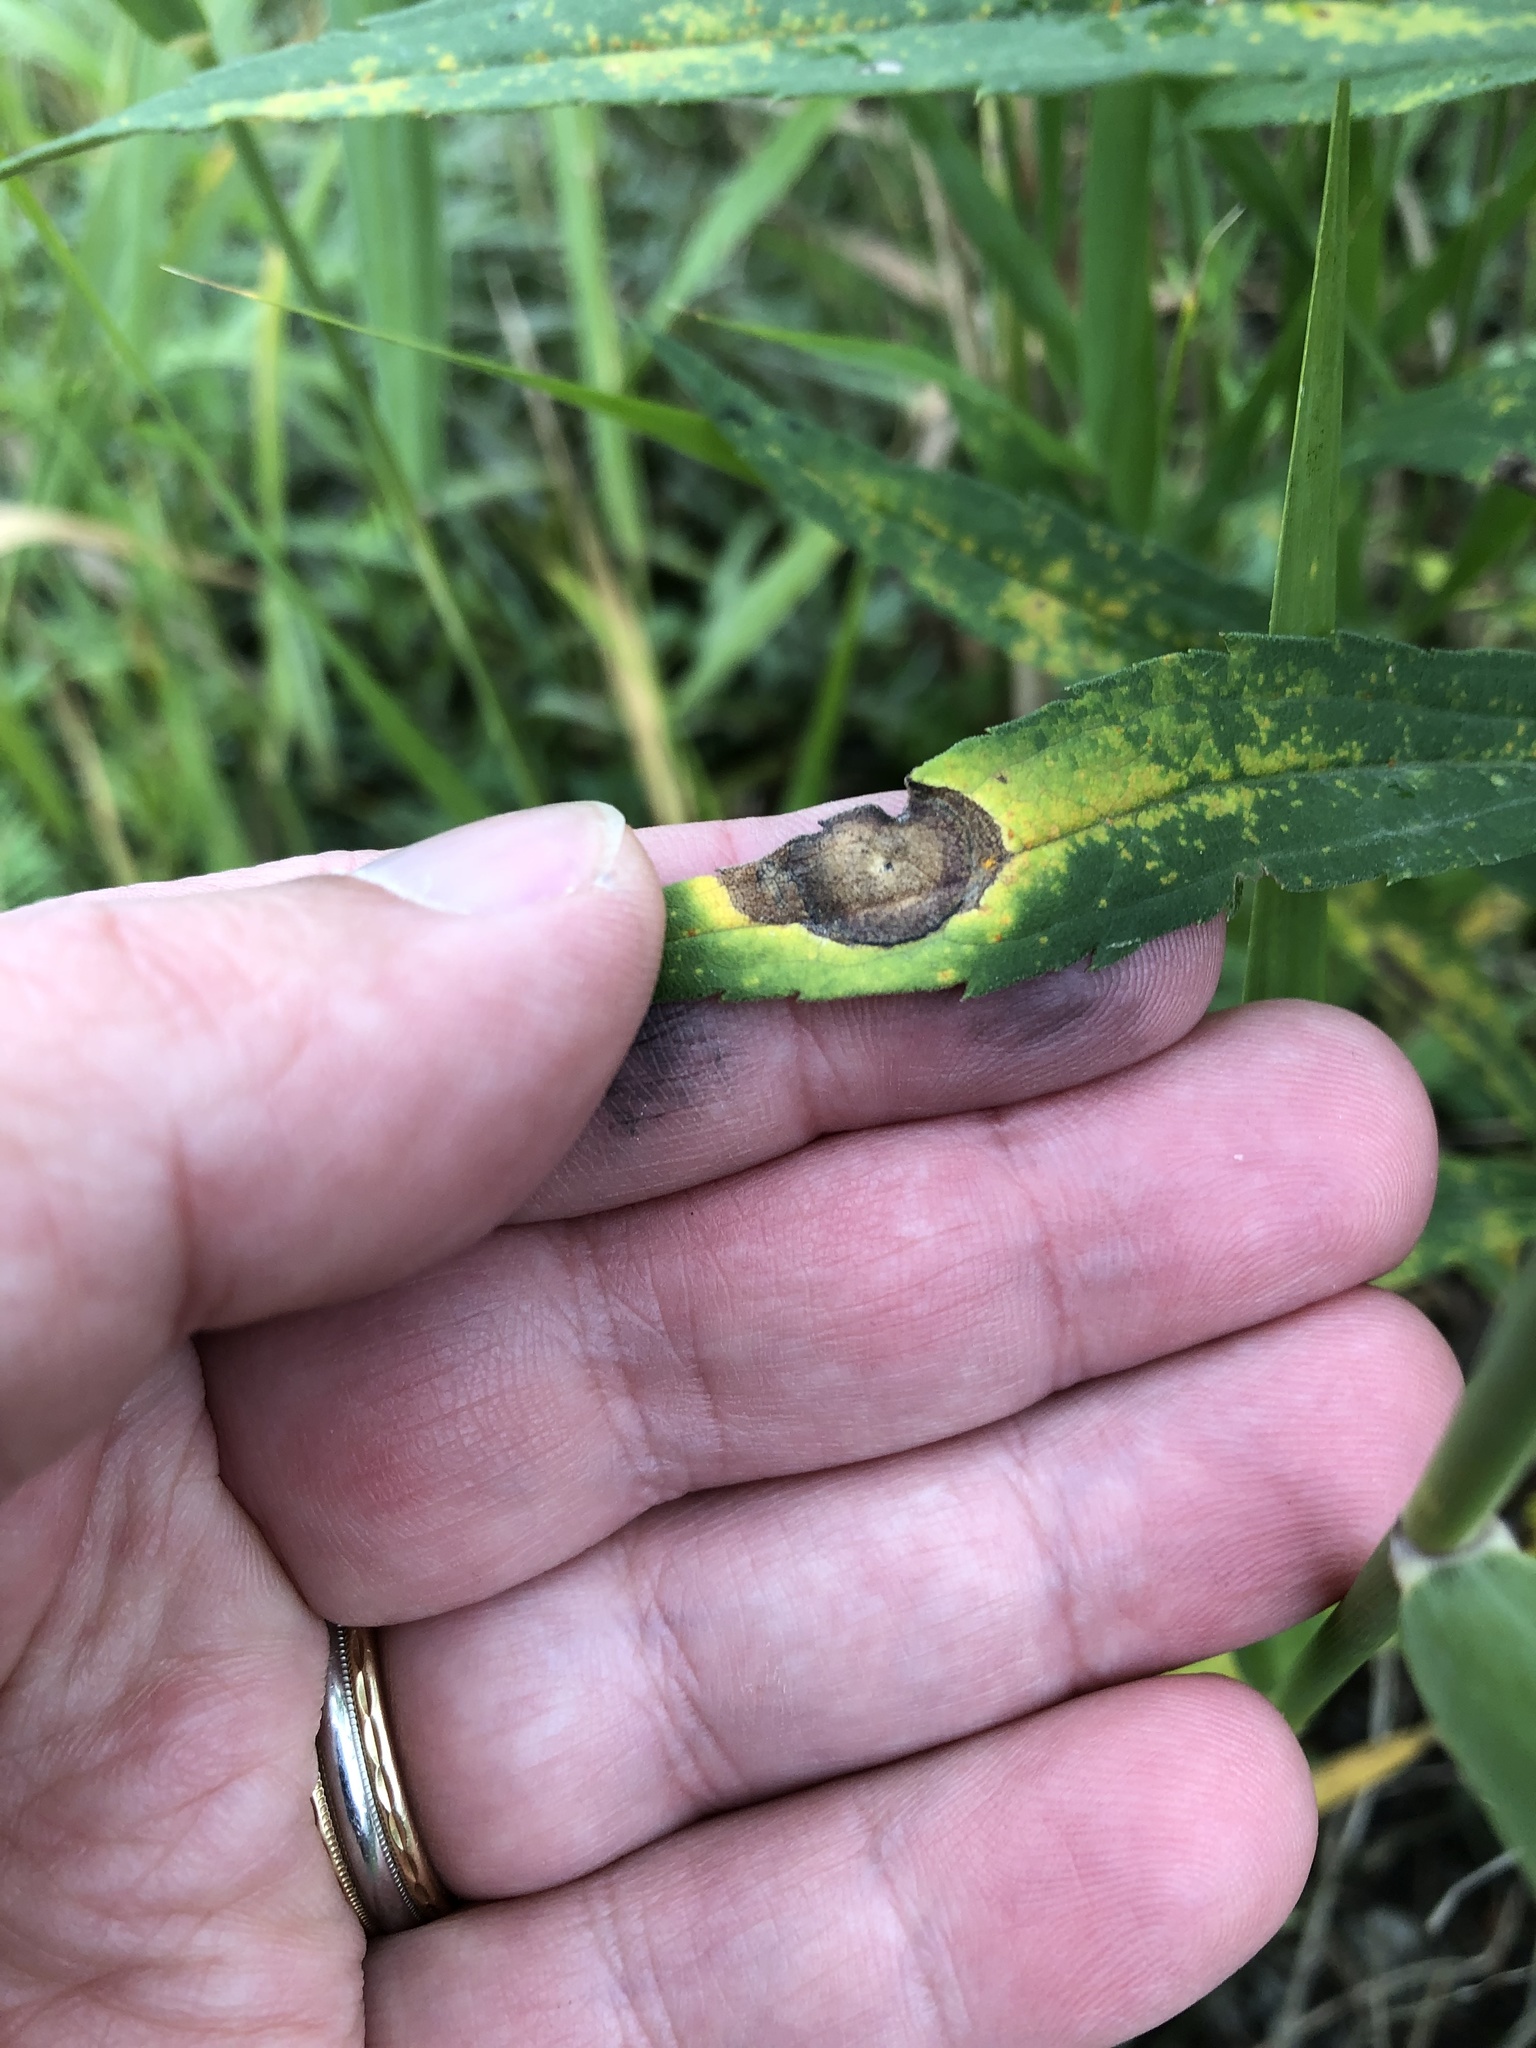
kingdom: Animalia
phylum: Arthropoda
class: Insecta
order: Diptera
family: Cecidomyiidae
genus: Asteromyia
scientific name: Asteromyia carbonifera
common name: Carbonifera goldenrod gall midge
